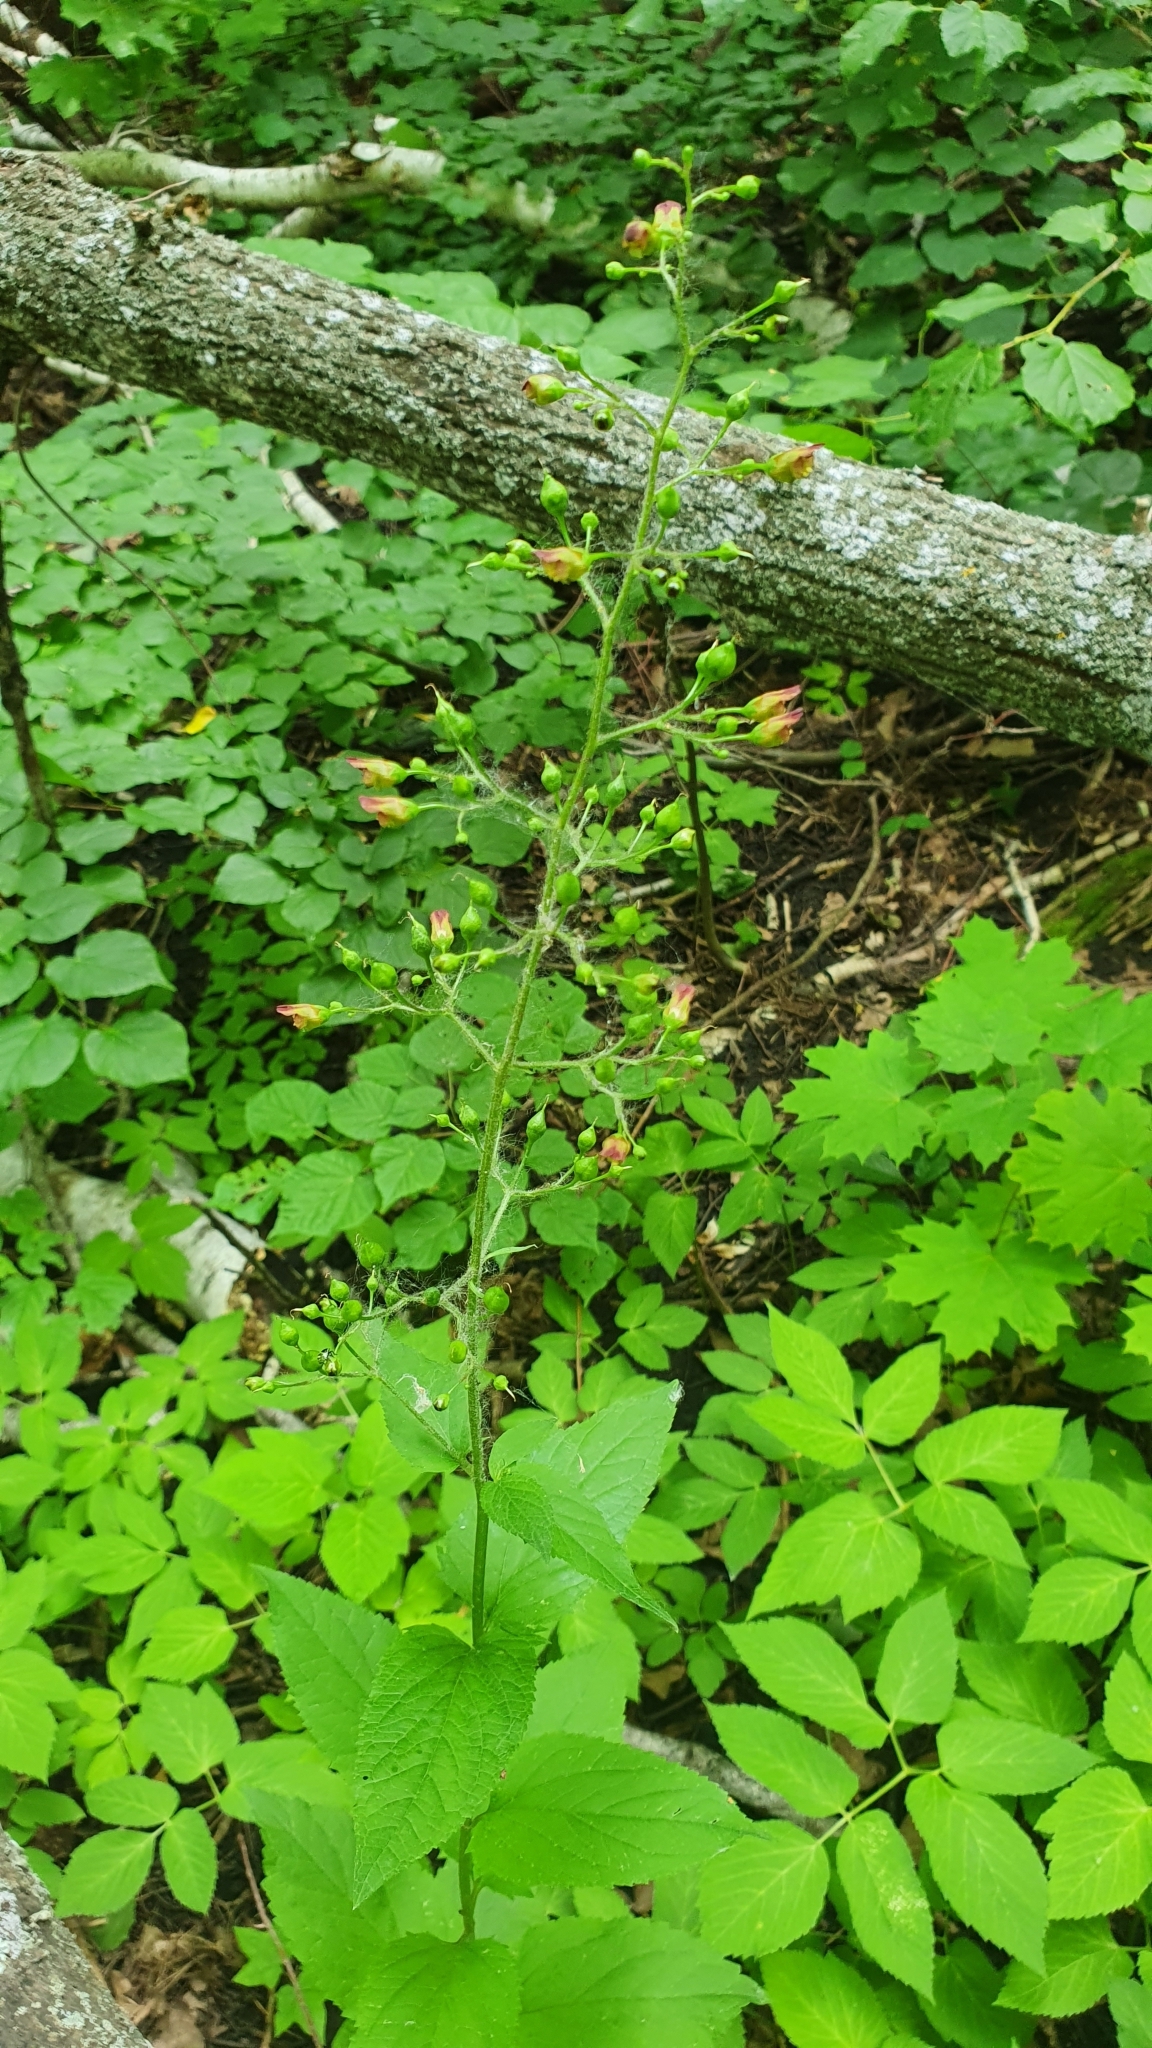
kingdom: Plantae
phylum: Tracheophyta
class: Magnoliopsida
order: Lamiales
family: Scrophulariaceae
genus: Scrophularia
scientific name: Scrophularia nodosa
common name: Common figwort
